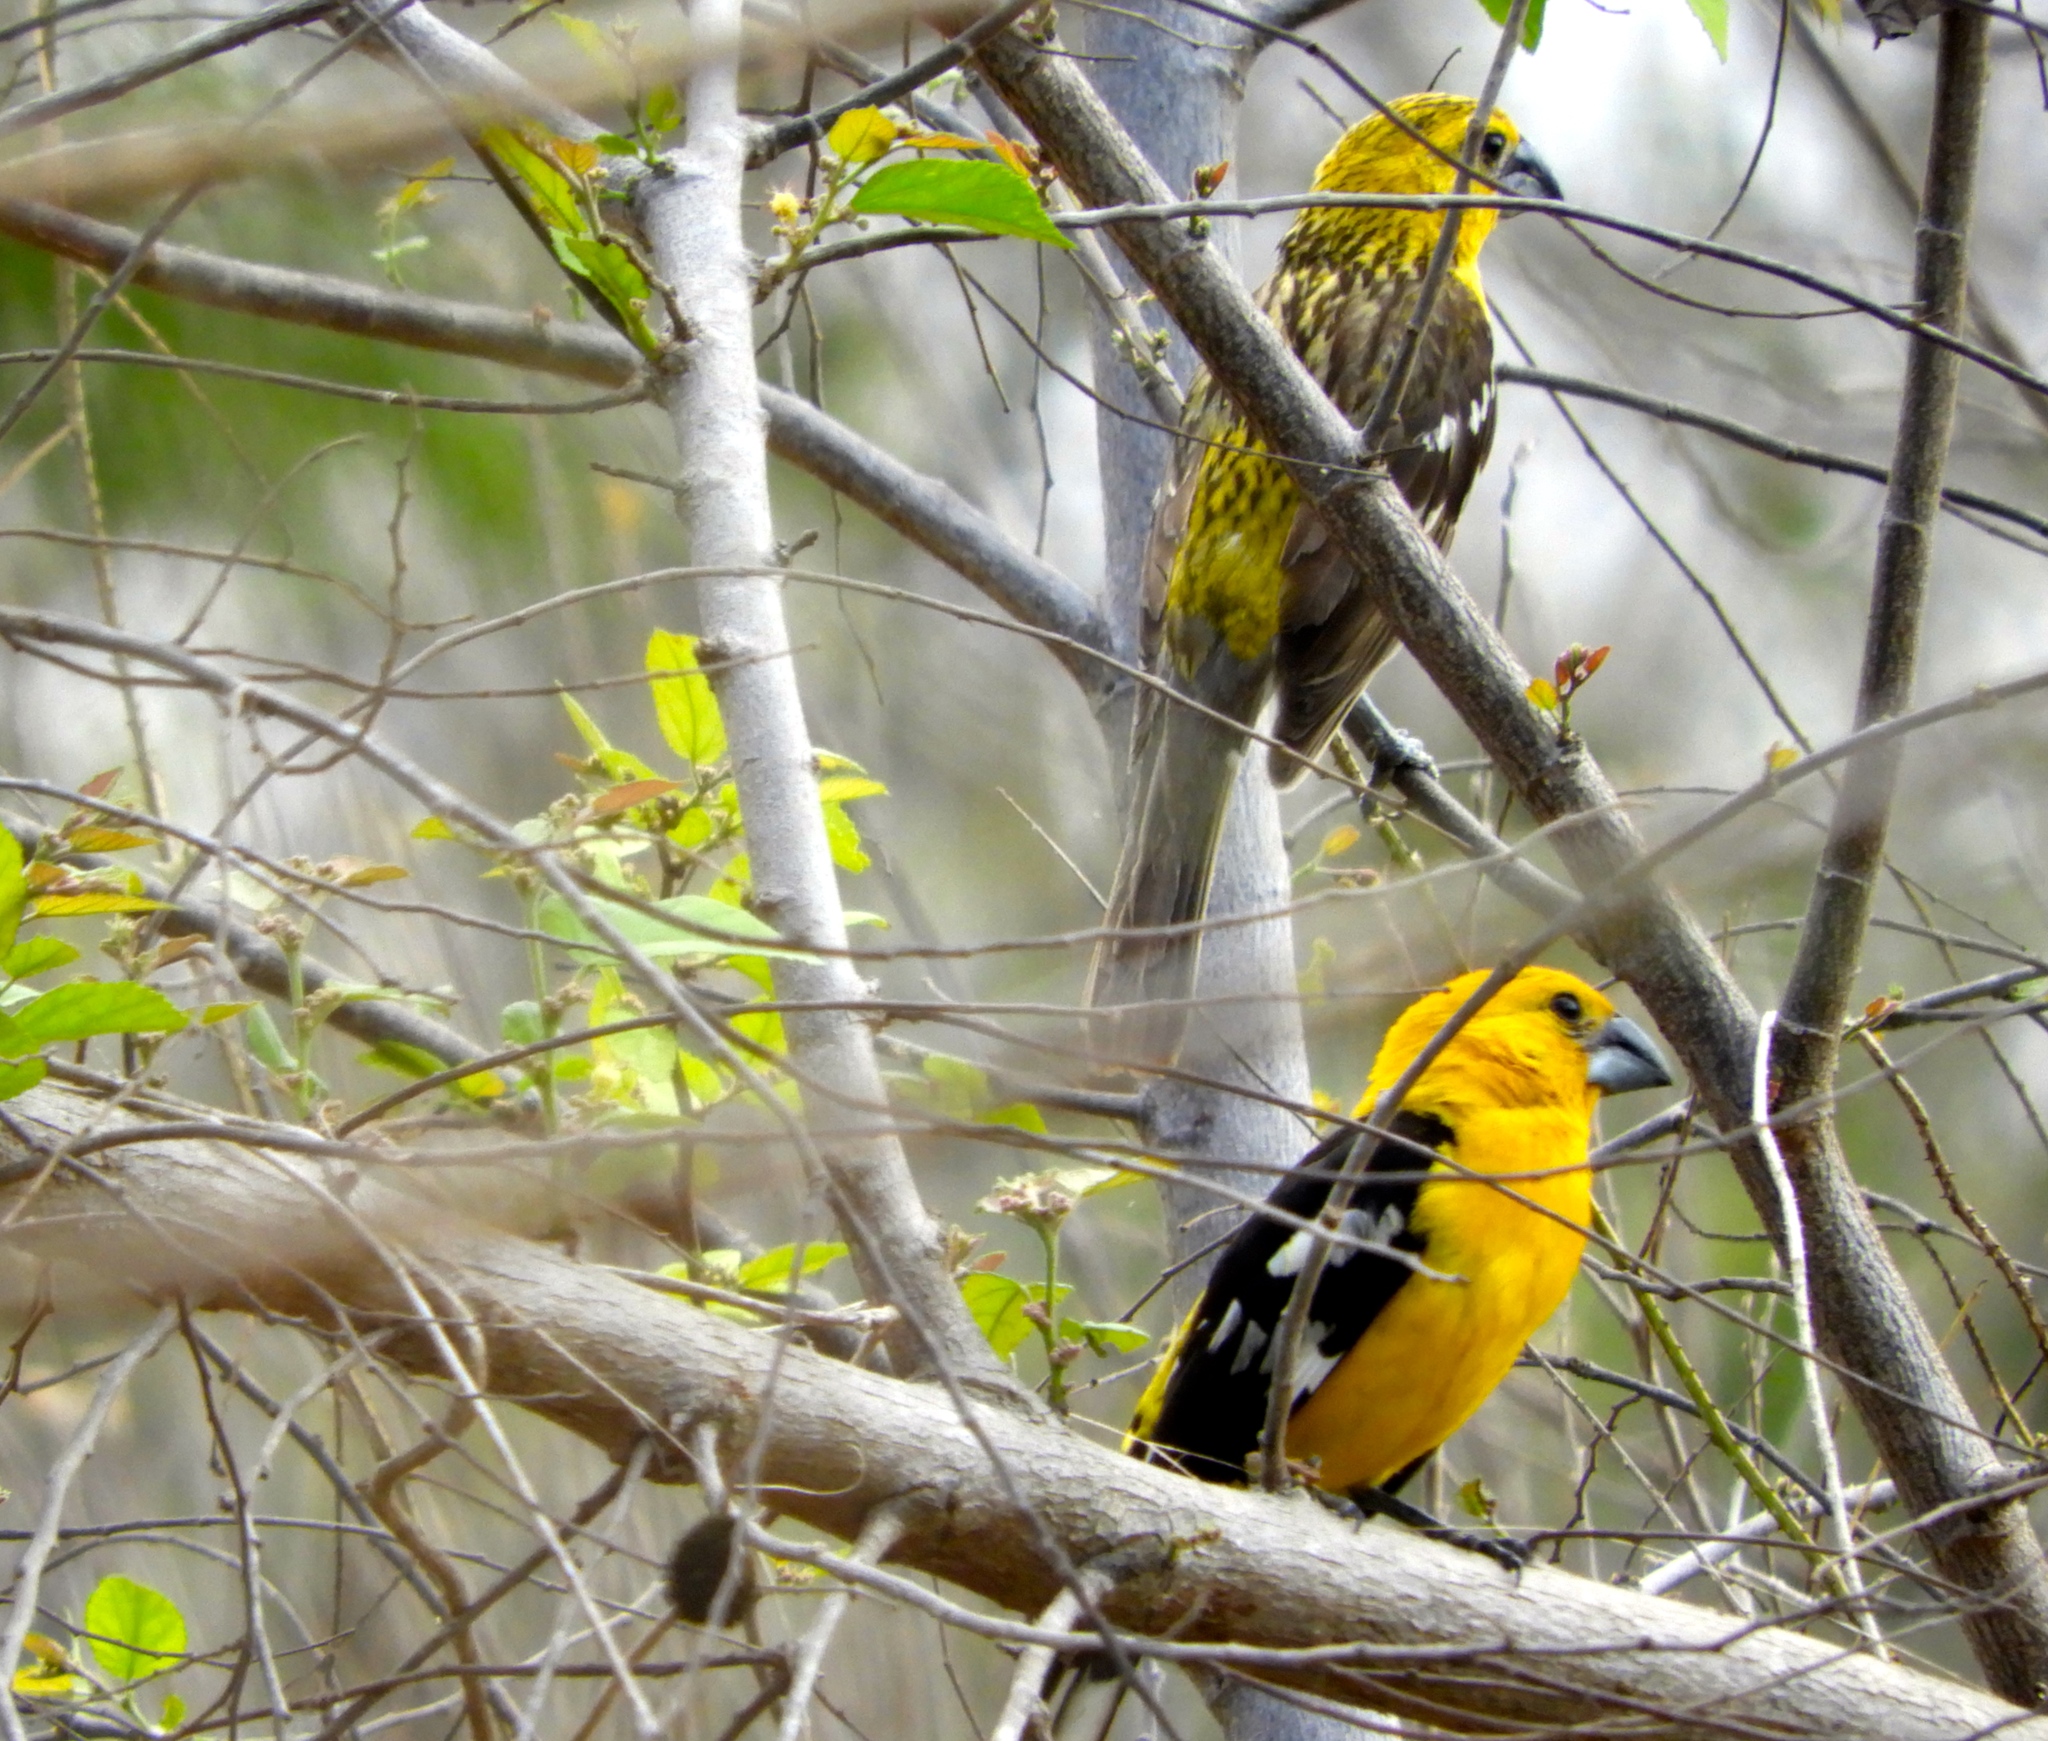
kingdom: Animalia
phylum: Chordata
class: Aves
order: Passeriformes
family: Cardinalidae
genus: Pheucticus
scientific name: Pheucticus chrysopeplus
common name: Yellow grosbeak
